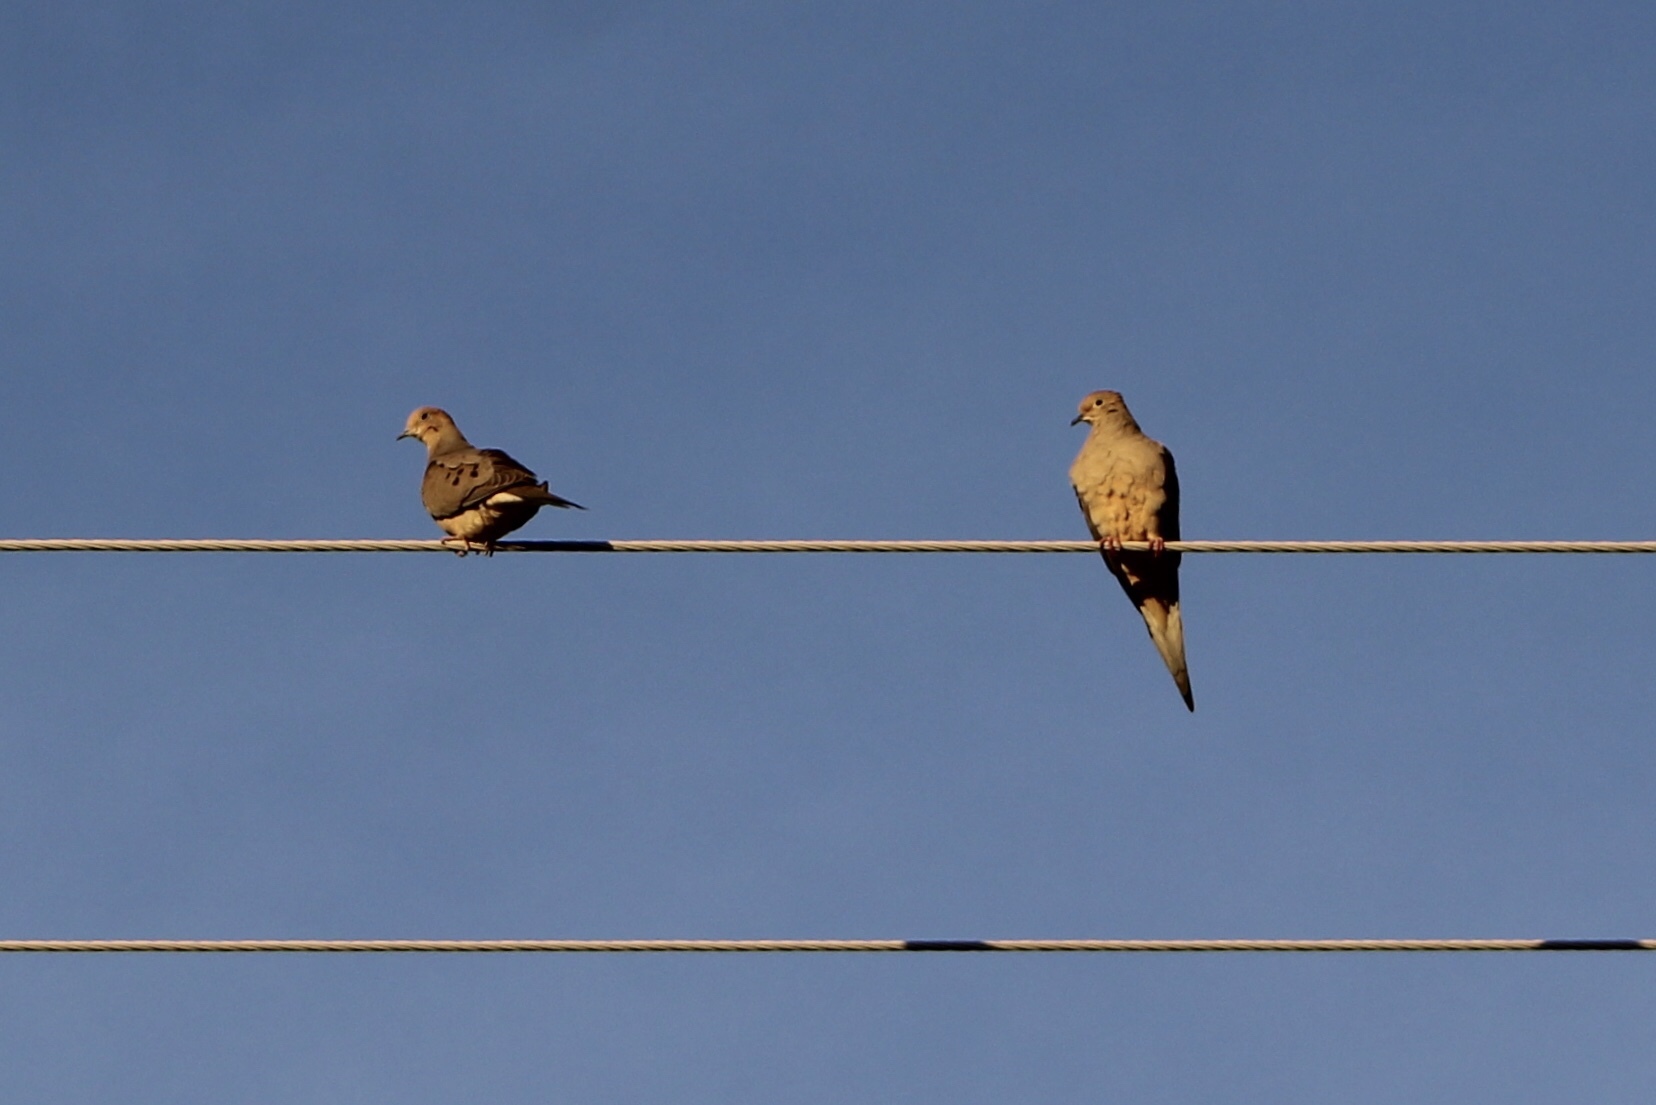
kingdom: Animalia
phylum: Chordata
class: Aves
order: Columbiformes
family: Columbidae
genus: Zenaida
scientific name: Zenaida macroura
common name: Mourning dove
